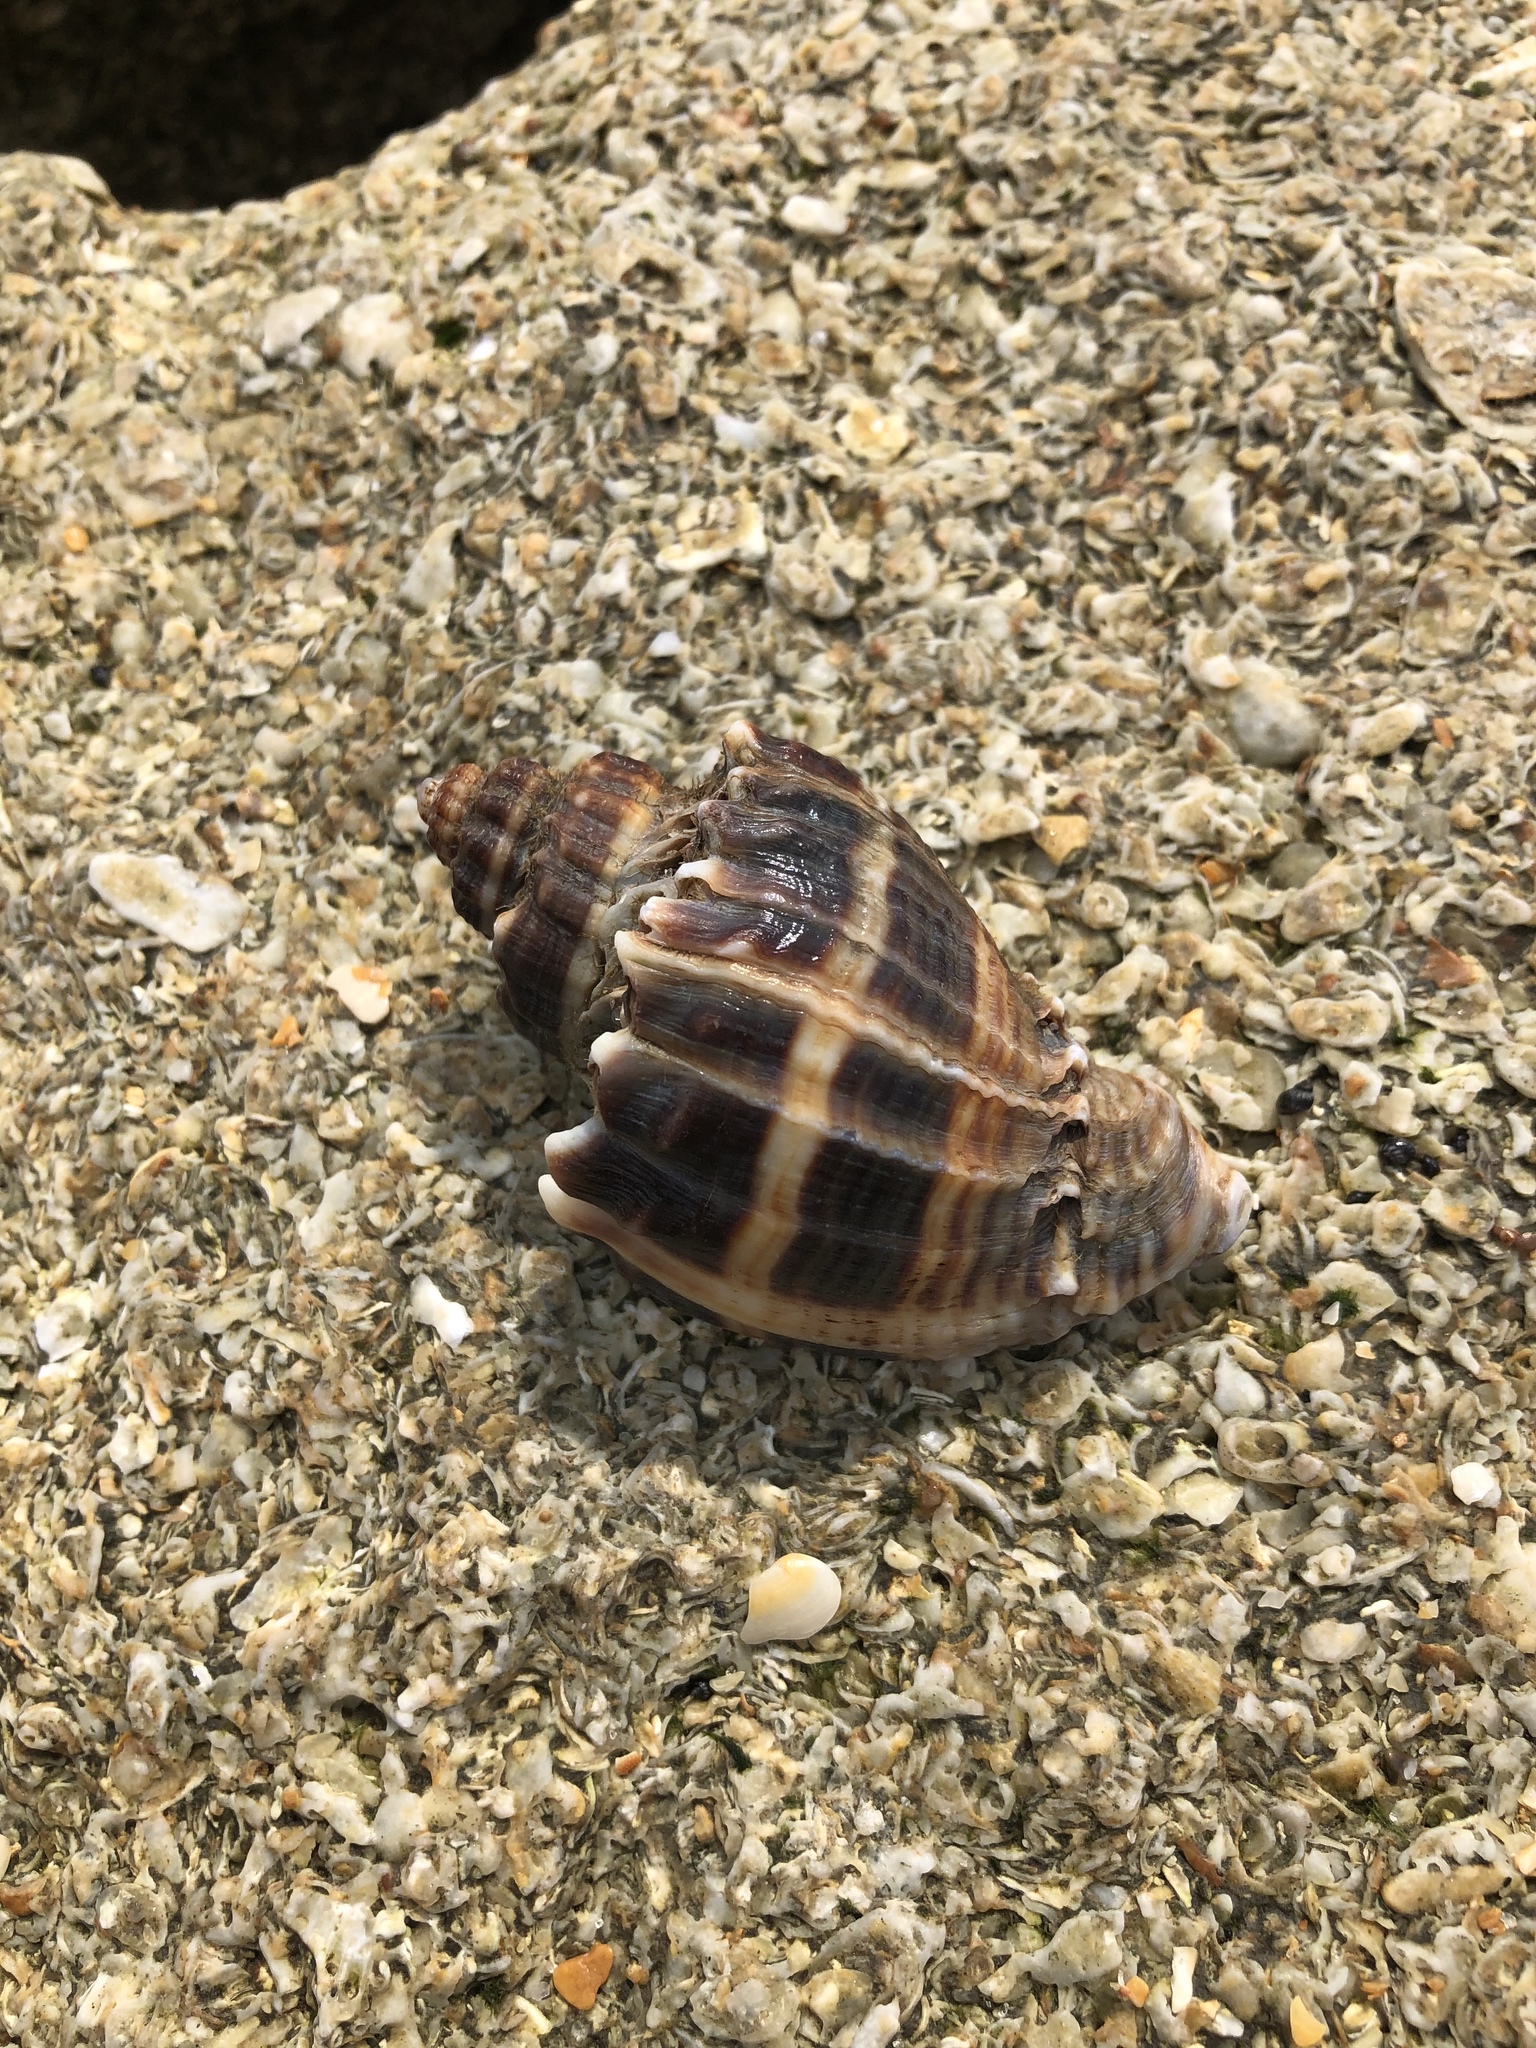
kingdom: Animalia
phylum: Mollusca
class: Gastropoda
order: Neogastropoda
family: Melongenidae
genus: Melongena
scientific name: Melongena corona
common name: American crown conch
